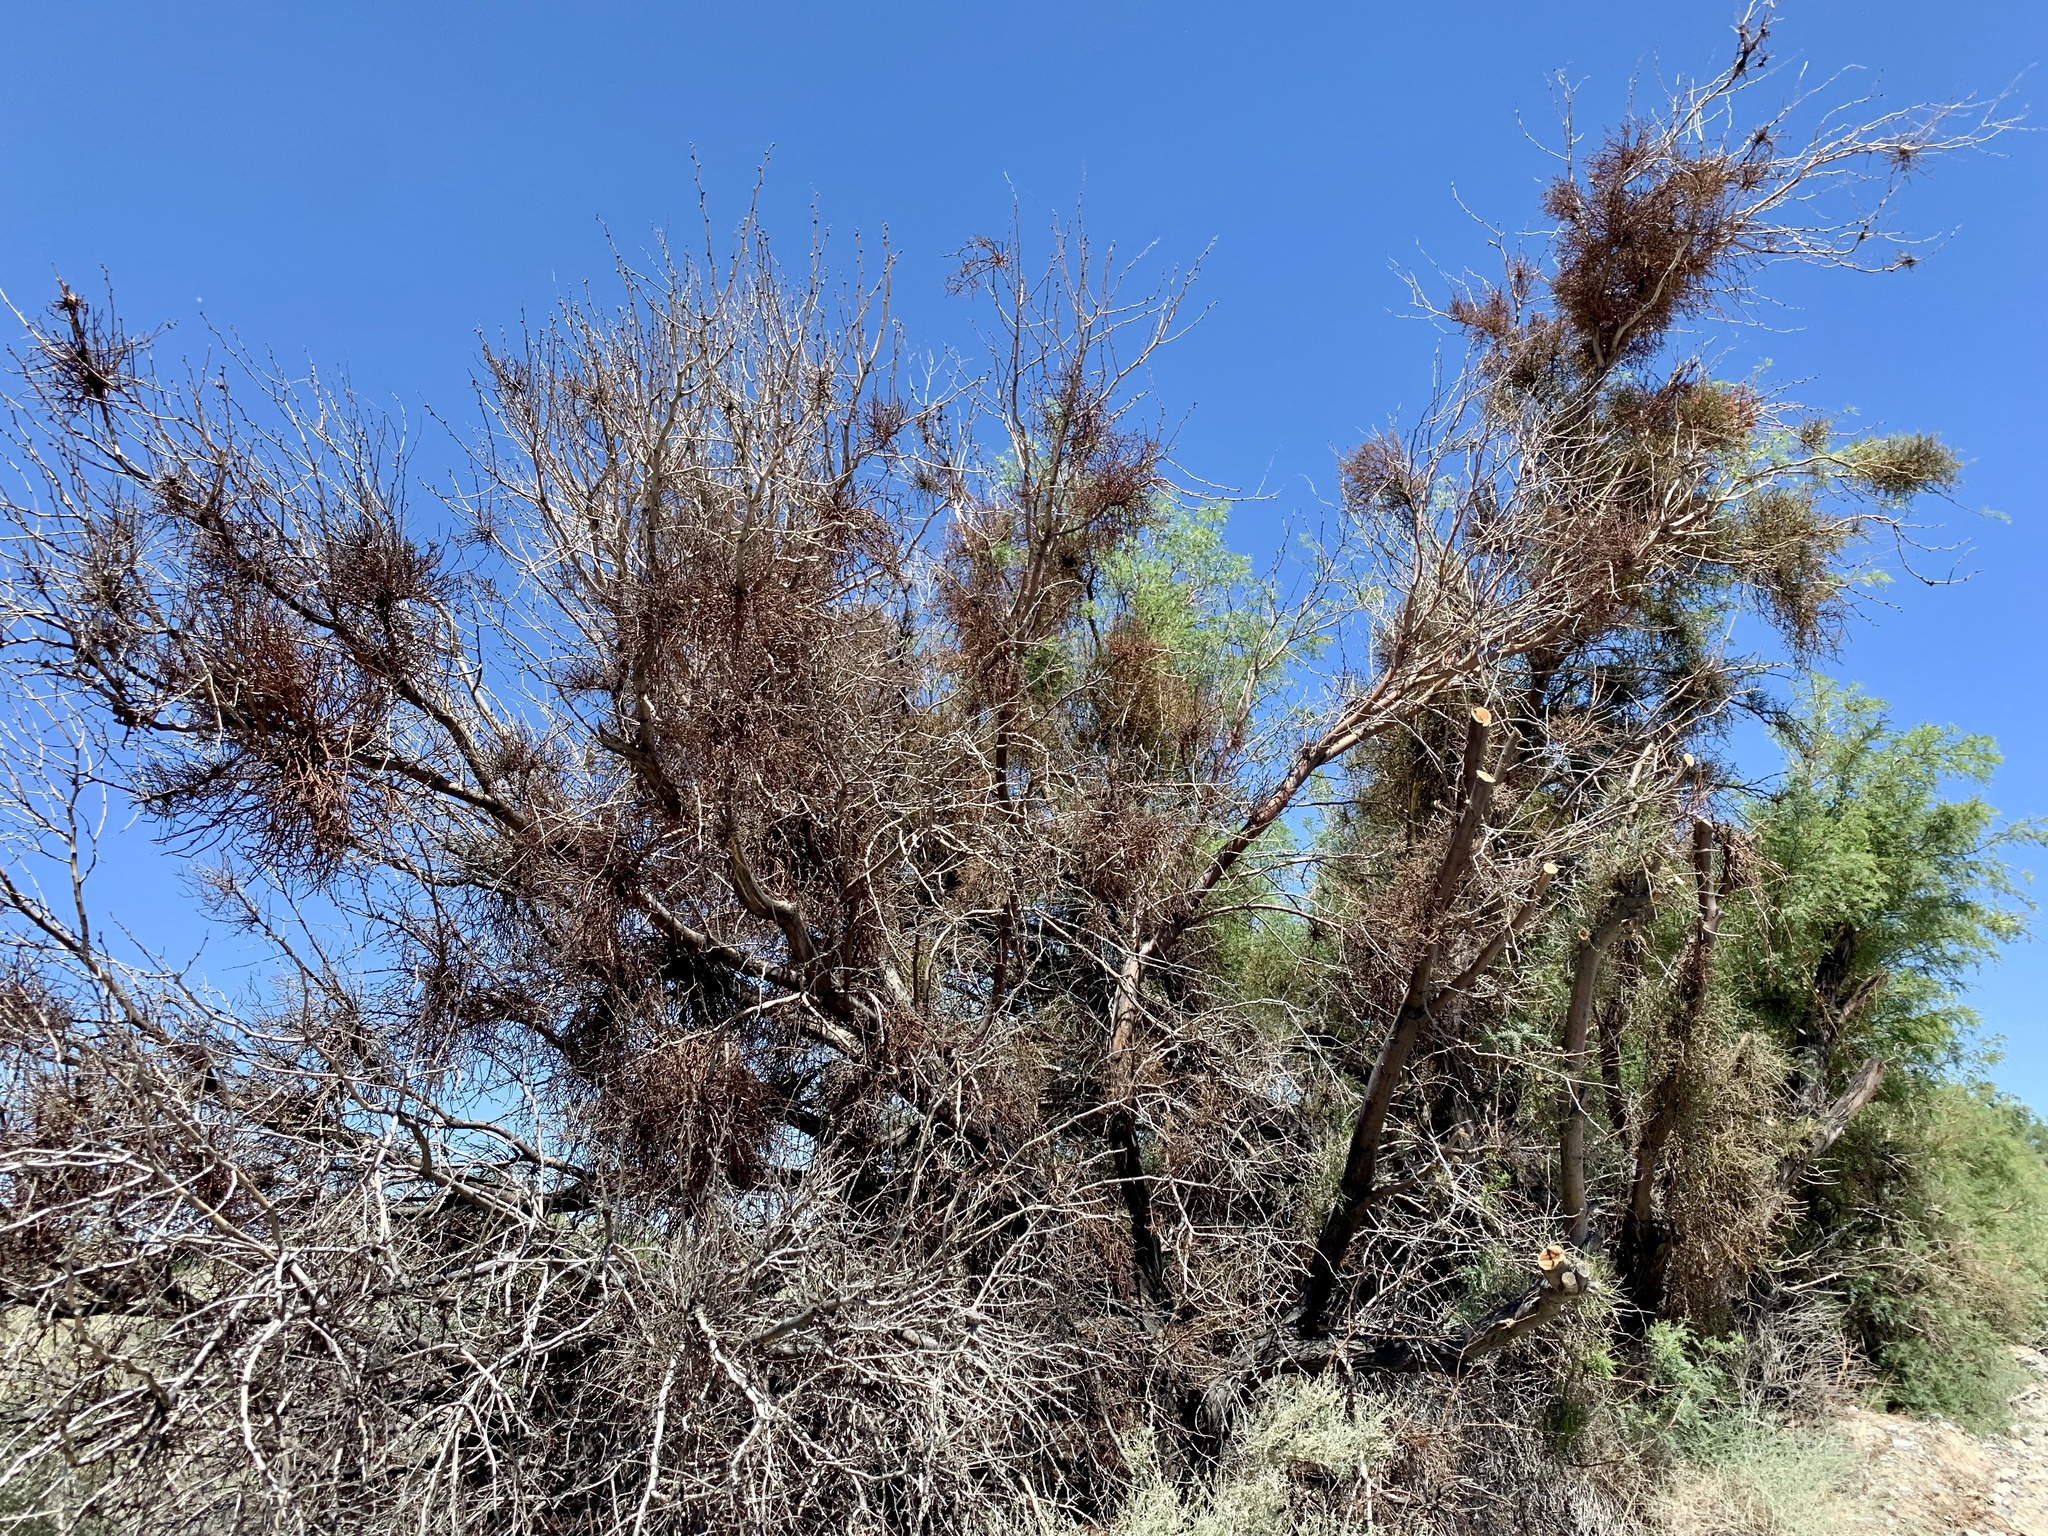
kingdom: Plantae
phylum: Tracheophyta
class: Magnoliopsida
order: Santalales
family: Viscaceae
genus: Phoradendron
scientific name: Phoradendron californicum
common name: Acacia mistletoe
